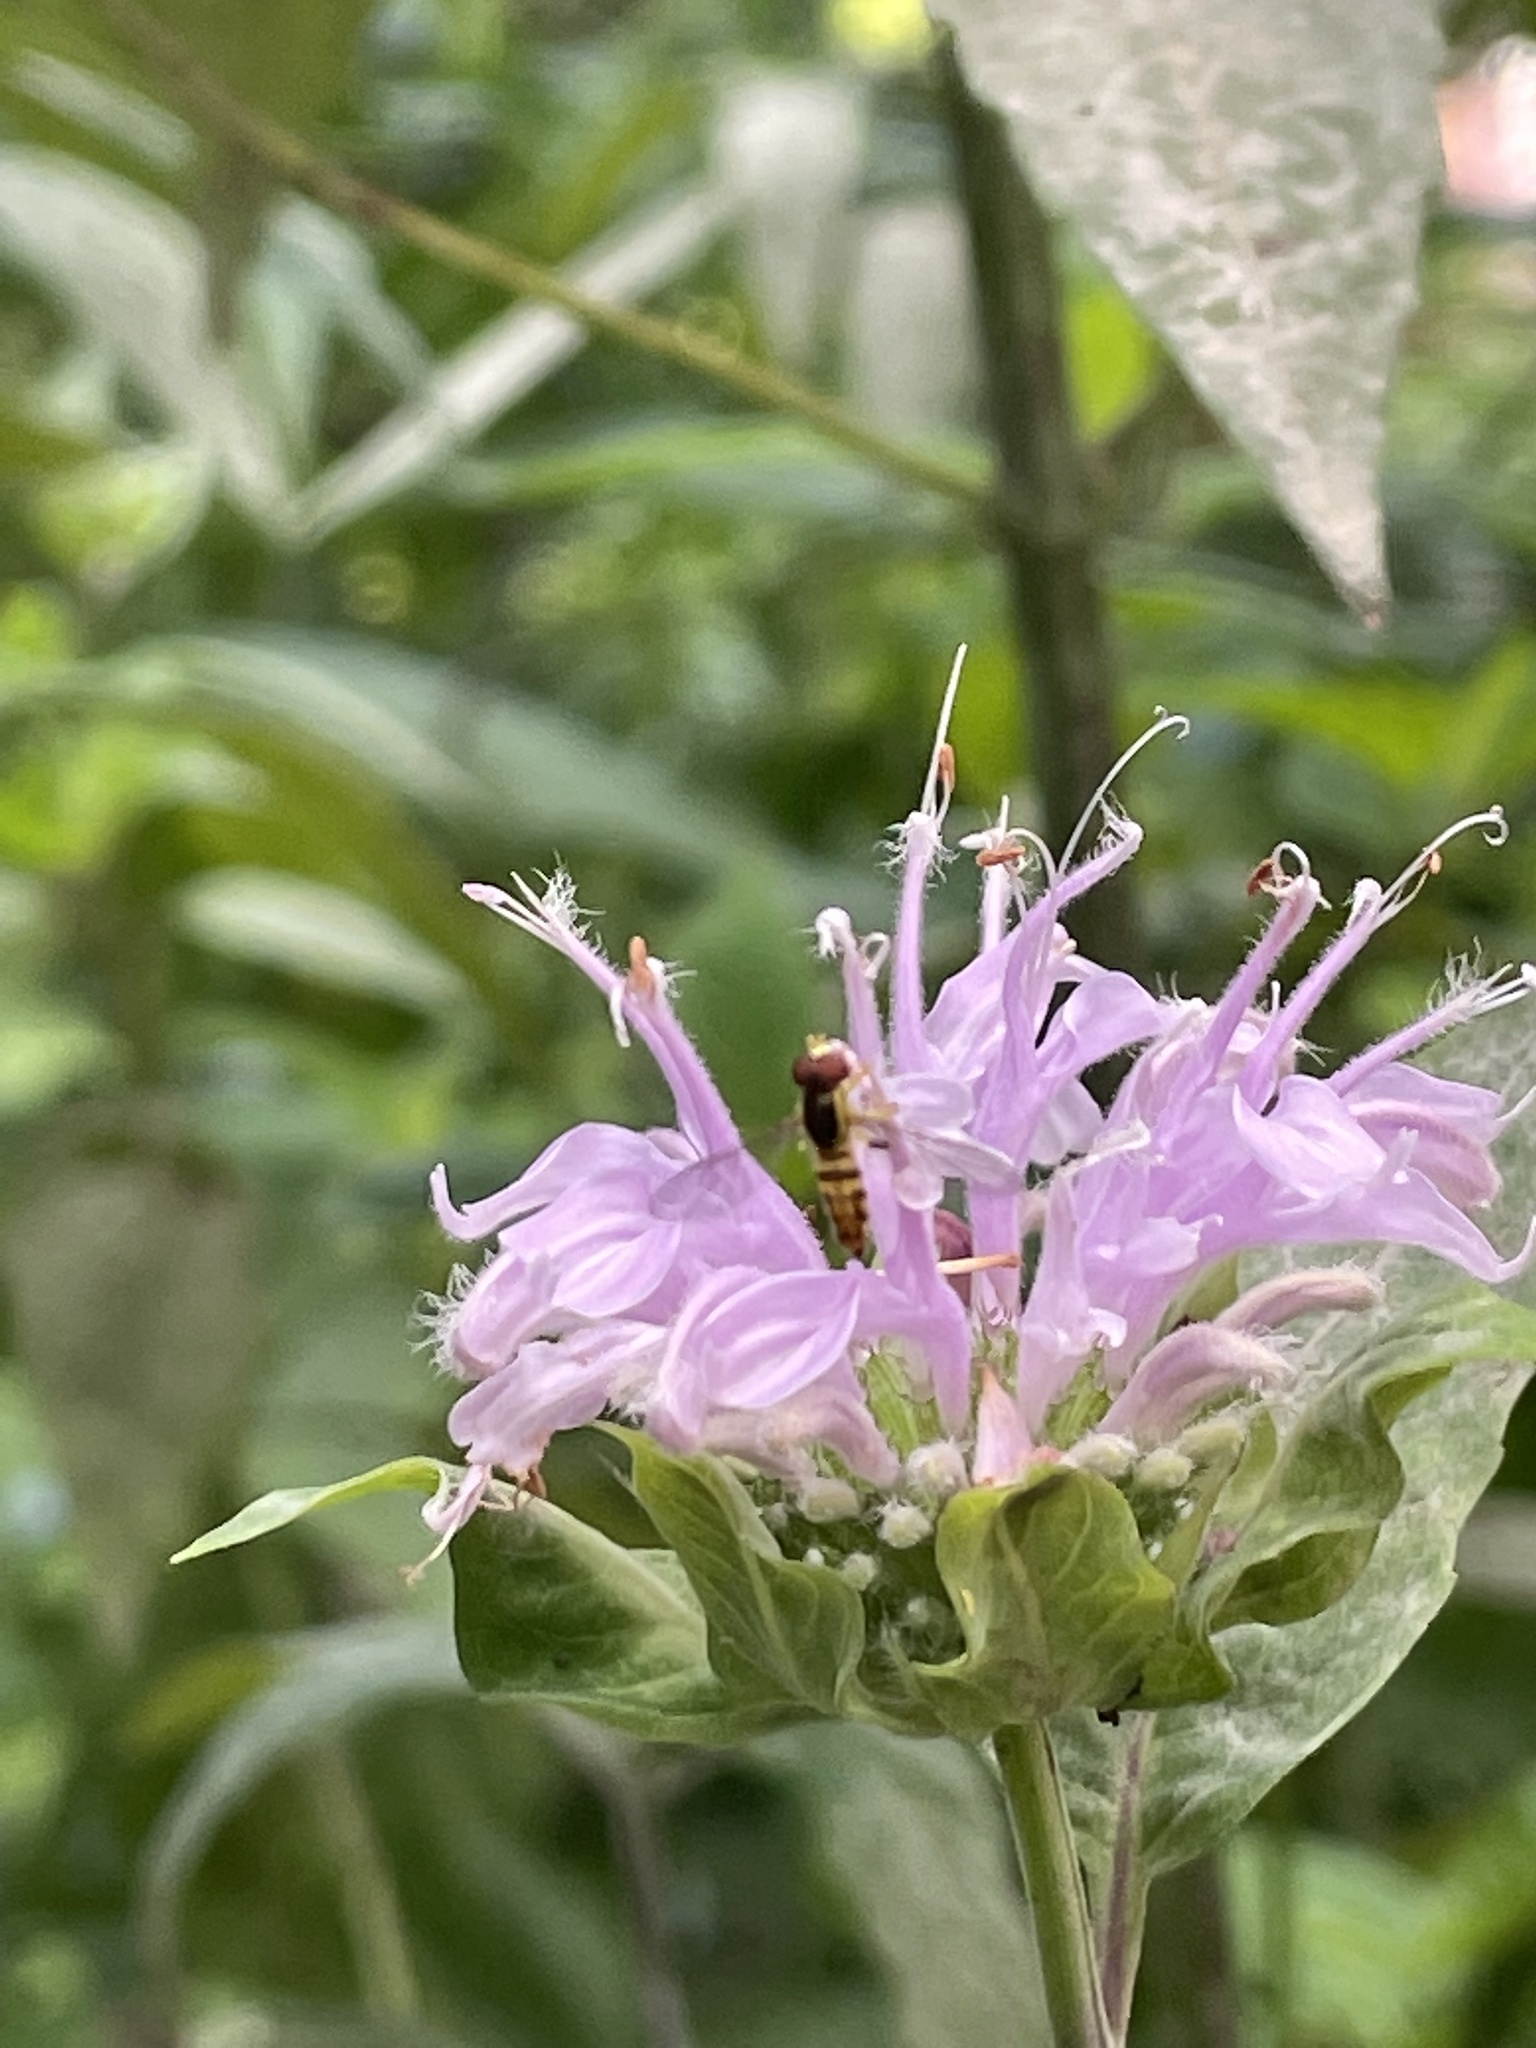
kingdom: Animalia
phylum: Arthropoda
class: Insecta
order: Diptera
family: Syrphidae
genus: Toxomerus
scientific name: Toxomerus geminatus
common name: Eastern calligrapher
